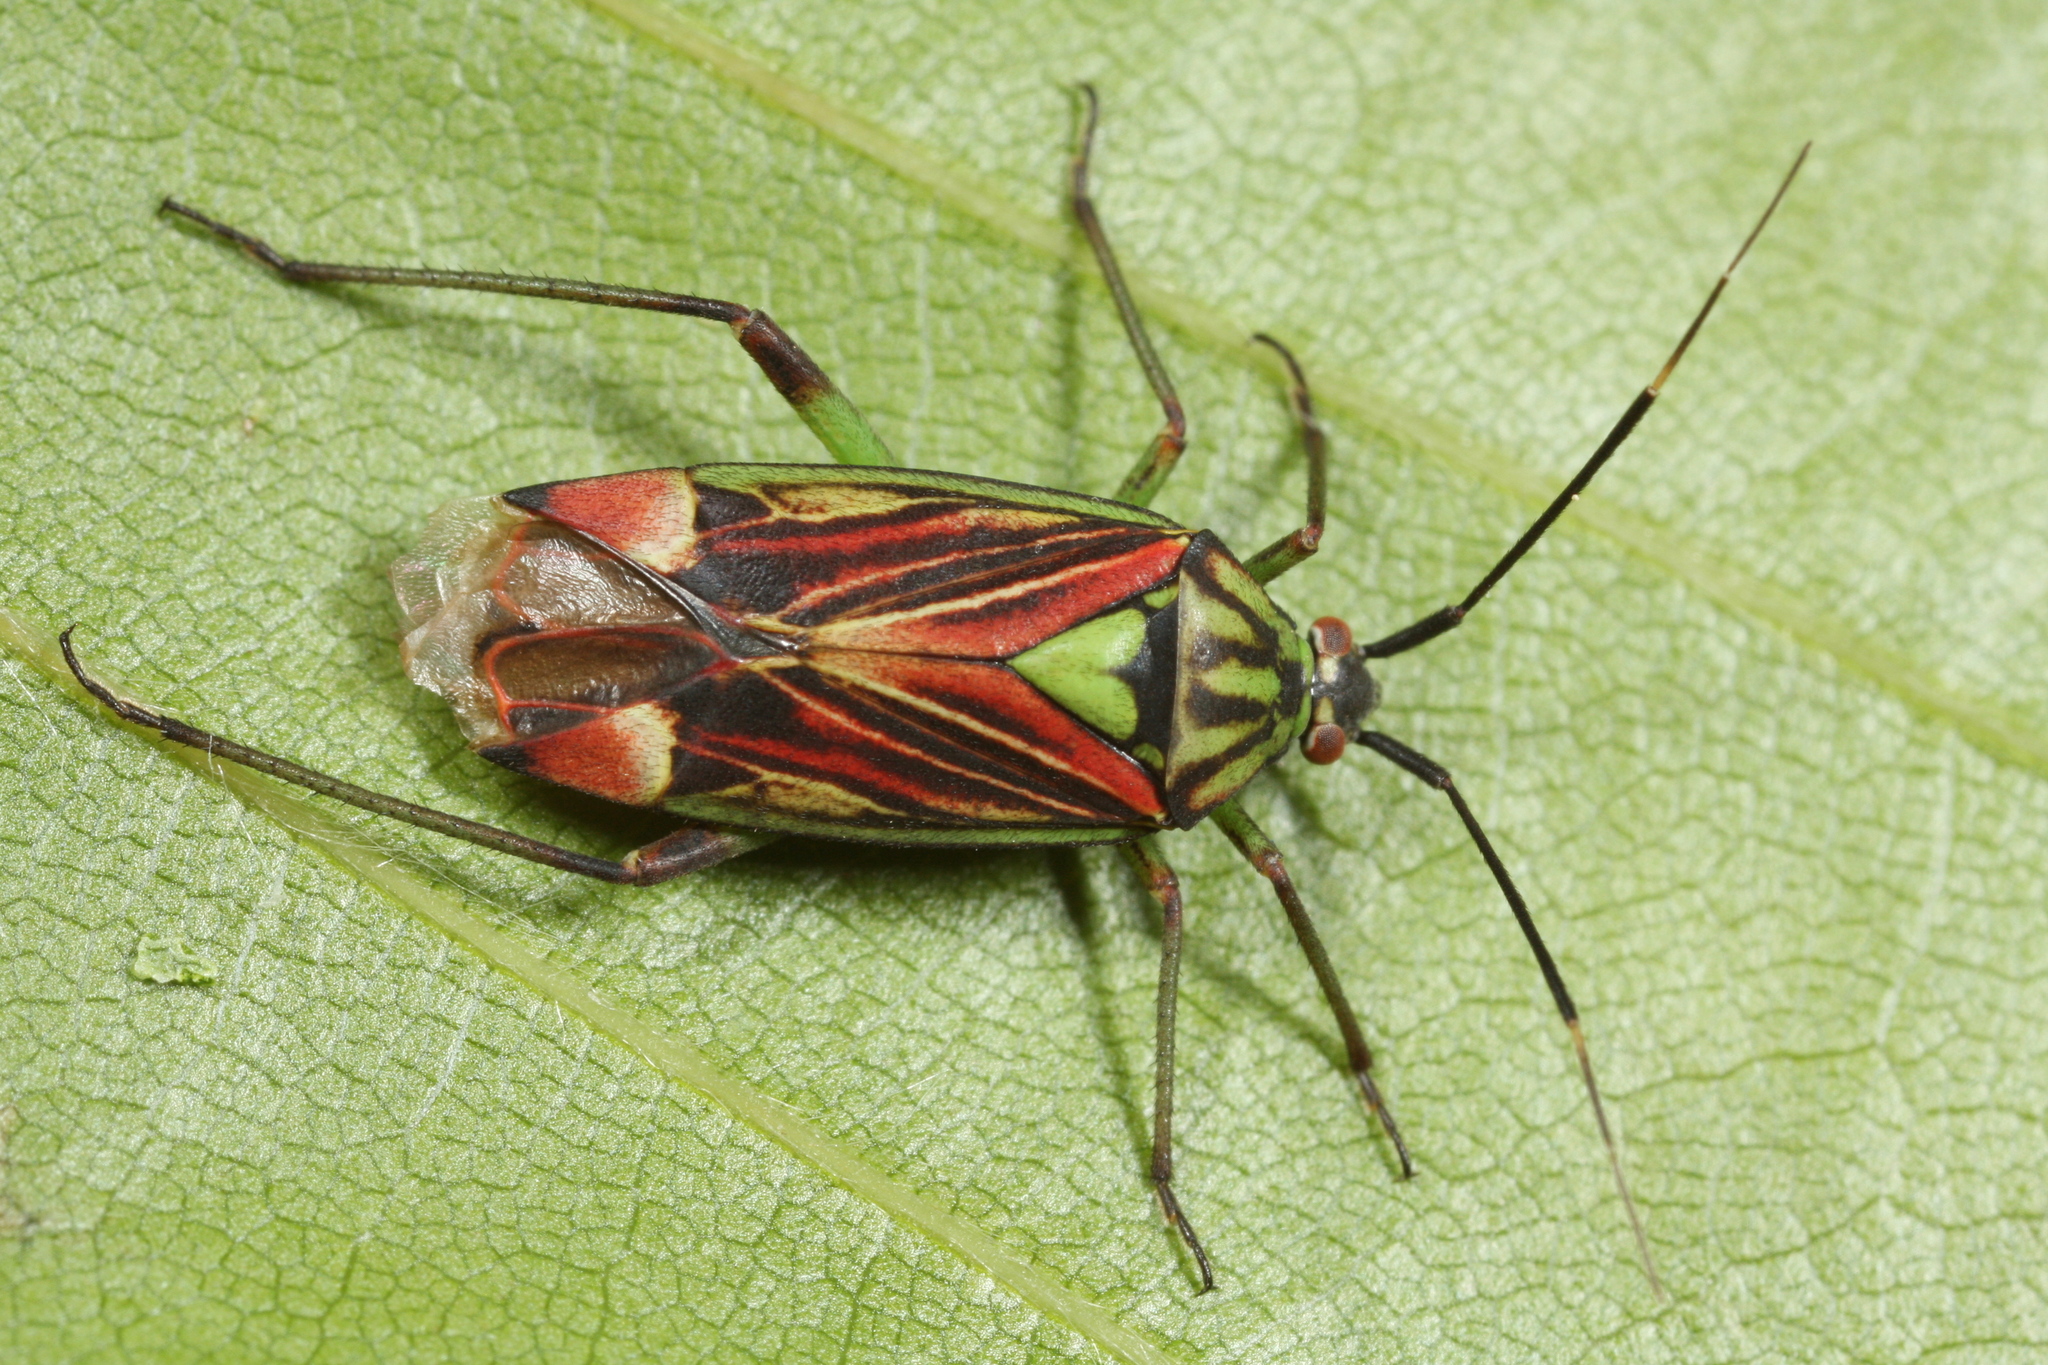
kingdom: Animalia
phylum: Arthropoda
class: Insecta
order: Hemiptera
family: Miridae
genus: Actinonotus
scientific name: Actinonotus pulcher
